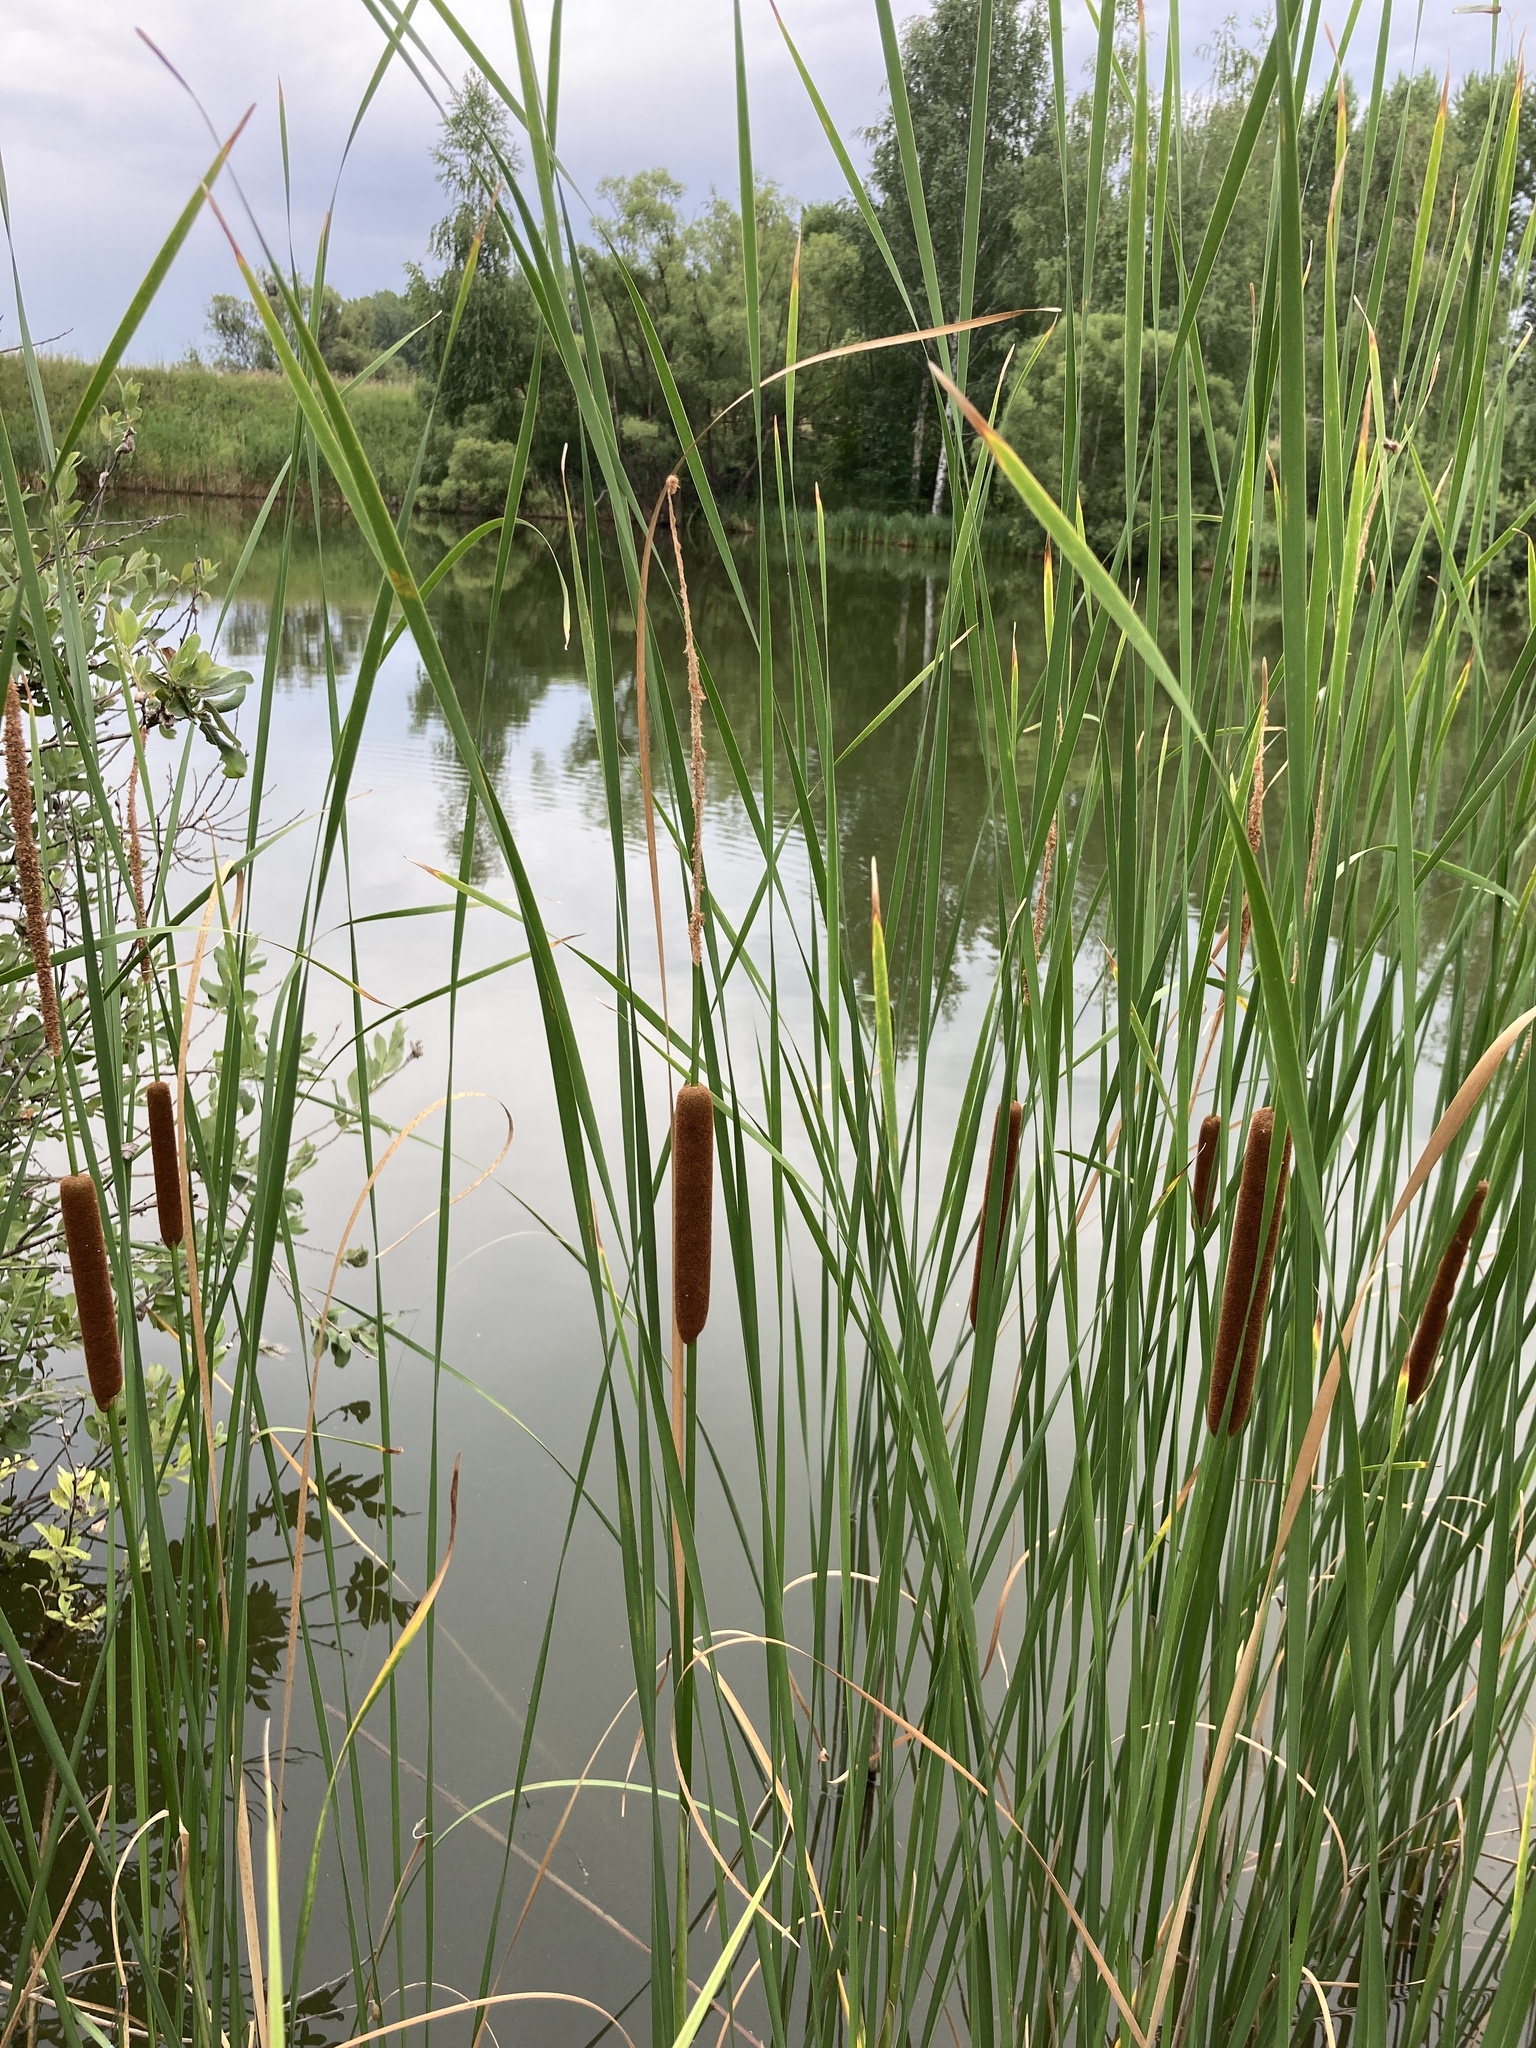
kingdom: Plantae
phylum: Tracheophyta
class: Liliopsida
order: Poales
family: Typhaceae
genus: Typha
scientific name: Typha angustifolia
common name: Lesser bulrush
